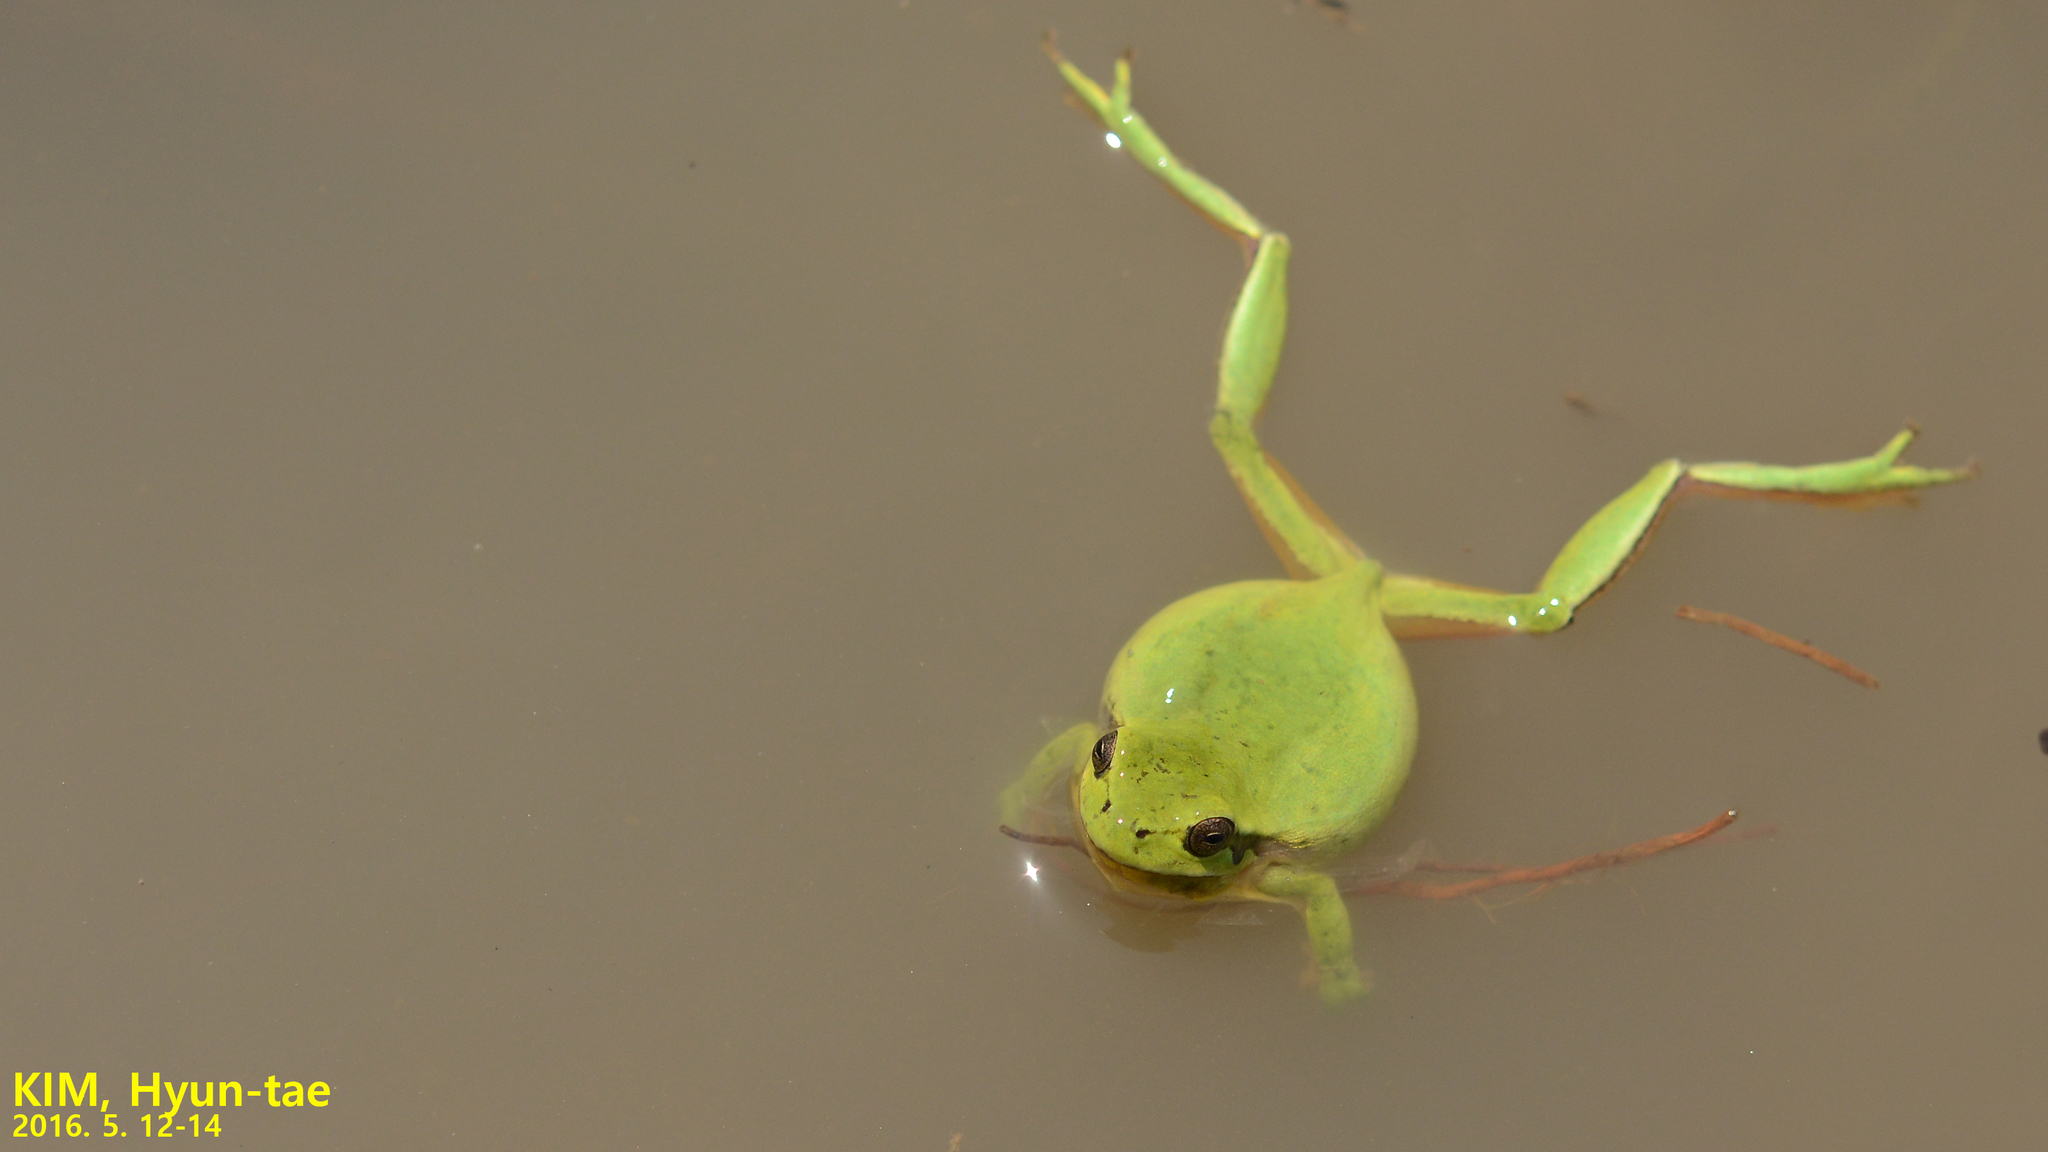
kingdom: Animalia
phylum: Chordata
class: Amphibia
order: Anura
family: Hylidae
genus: Dryophytes
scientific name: Dryophytes immaculatus
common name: North china treefrog
